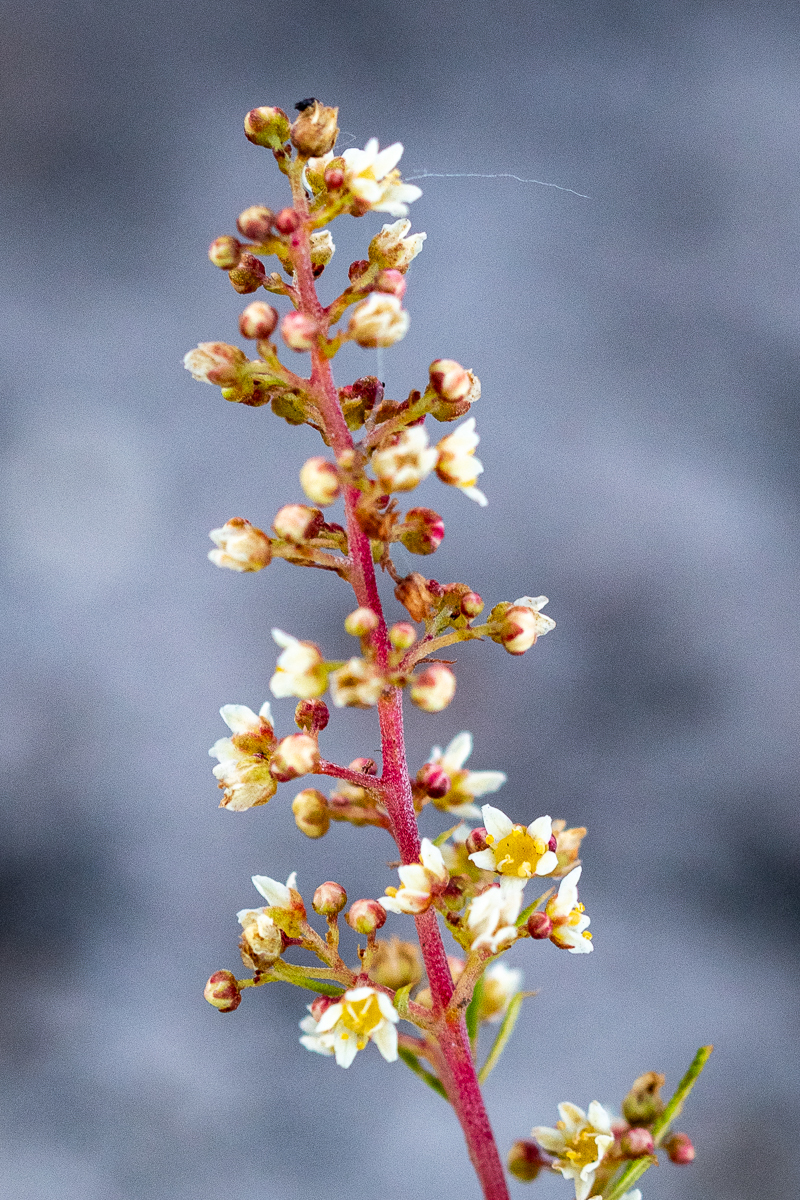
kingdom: Plantae
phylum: Tracheophyta
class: Magnoliopsida
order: Sapindales
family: Anacardiaceae
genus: Searsia
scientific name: Searsia rosmarinifolia
